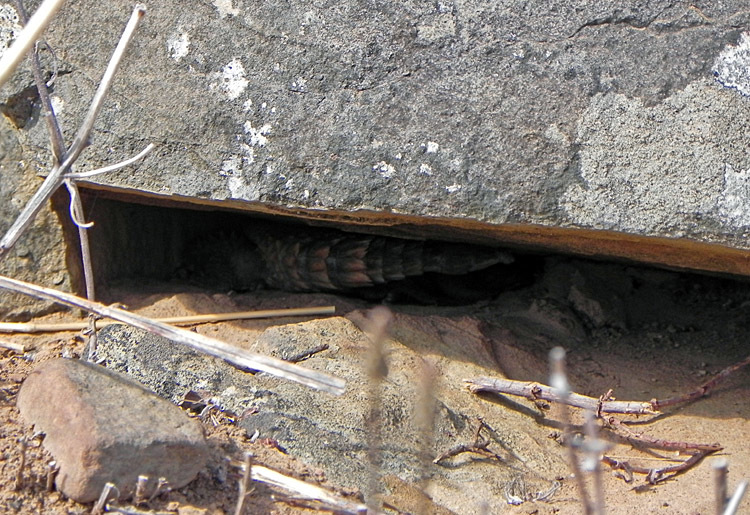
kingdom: Animalia
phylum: Chordata
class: Squamata
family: Cordylidae
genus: Cordylus
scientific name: Cordylus cordylus
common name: Cape girdled lizard
